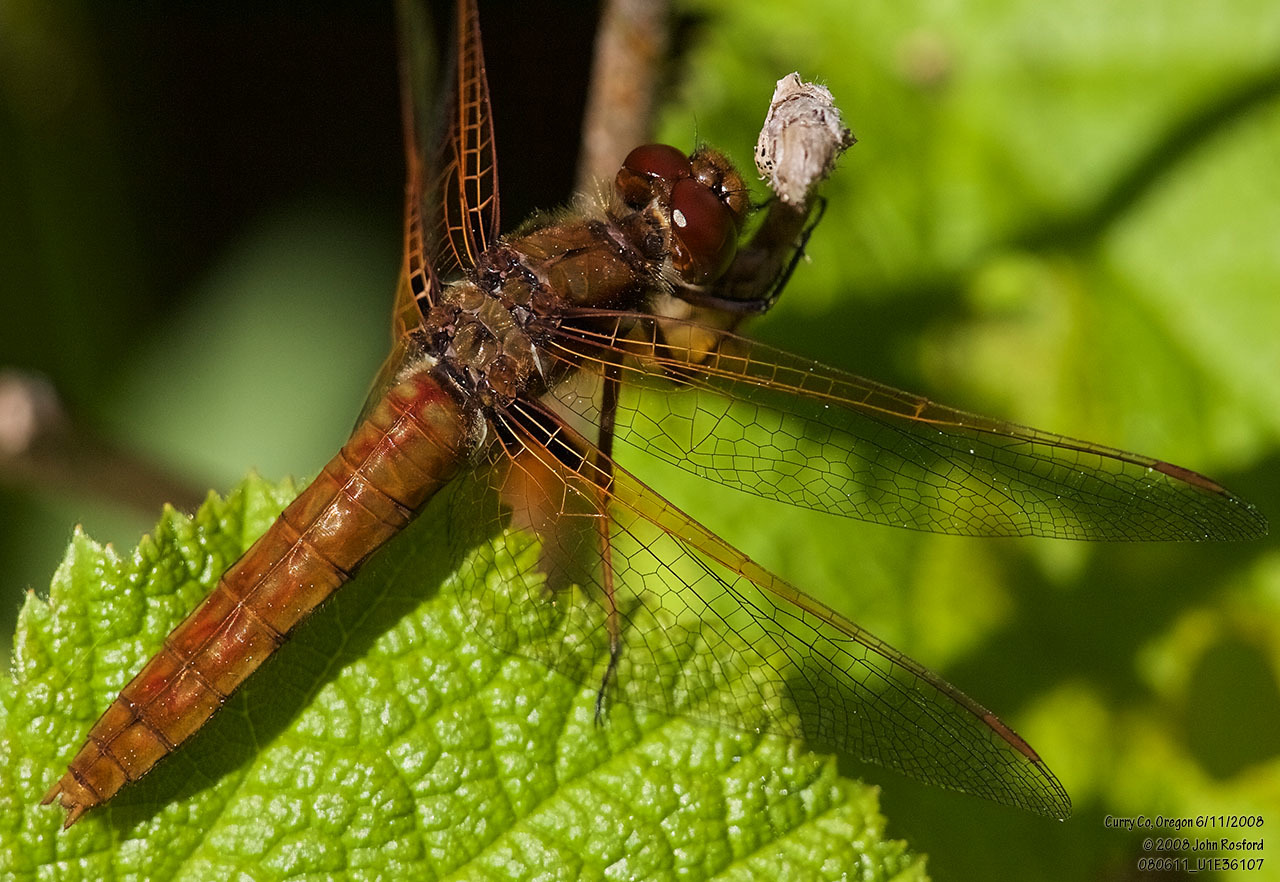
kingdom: Animalia
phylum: Arthropoda
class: Insecta
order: Odonata
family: Libellulidae
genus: Sympetrum
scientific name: Sympetrum illotum
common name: Cardinal meadowhawk
